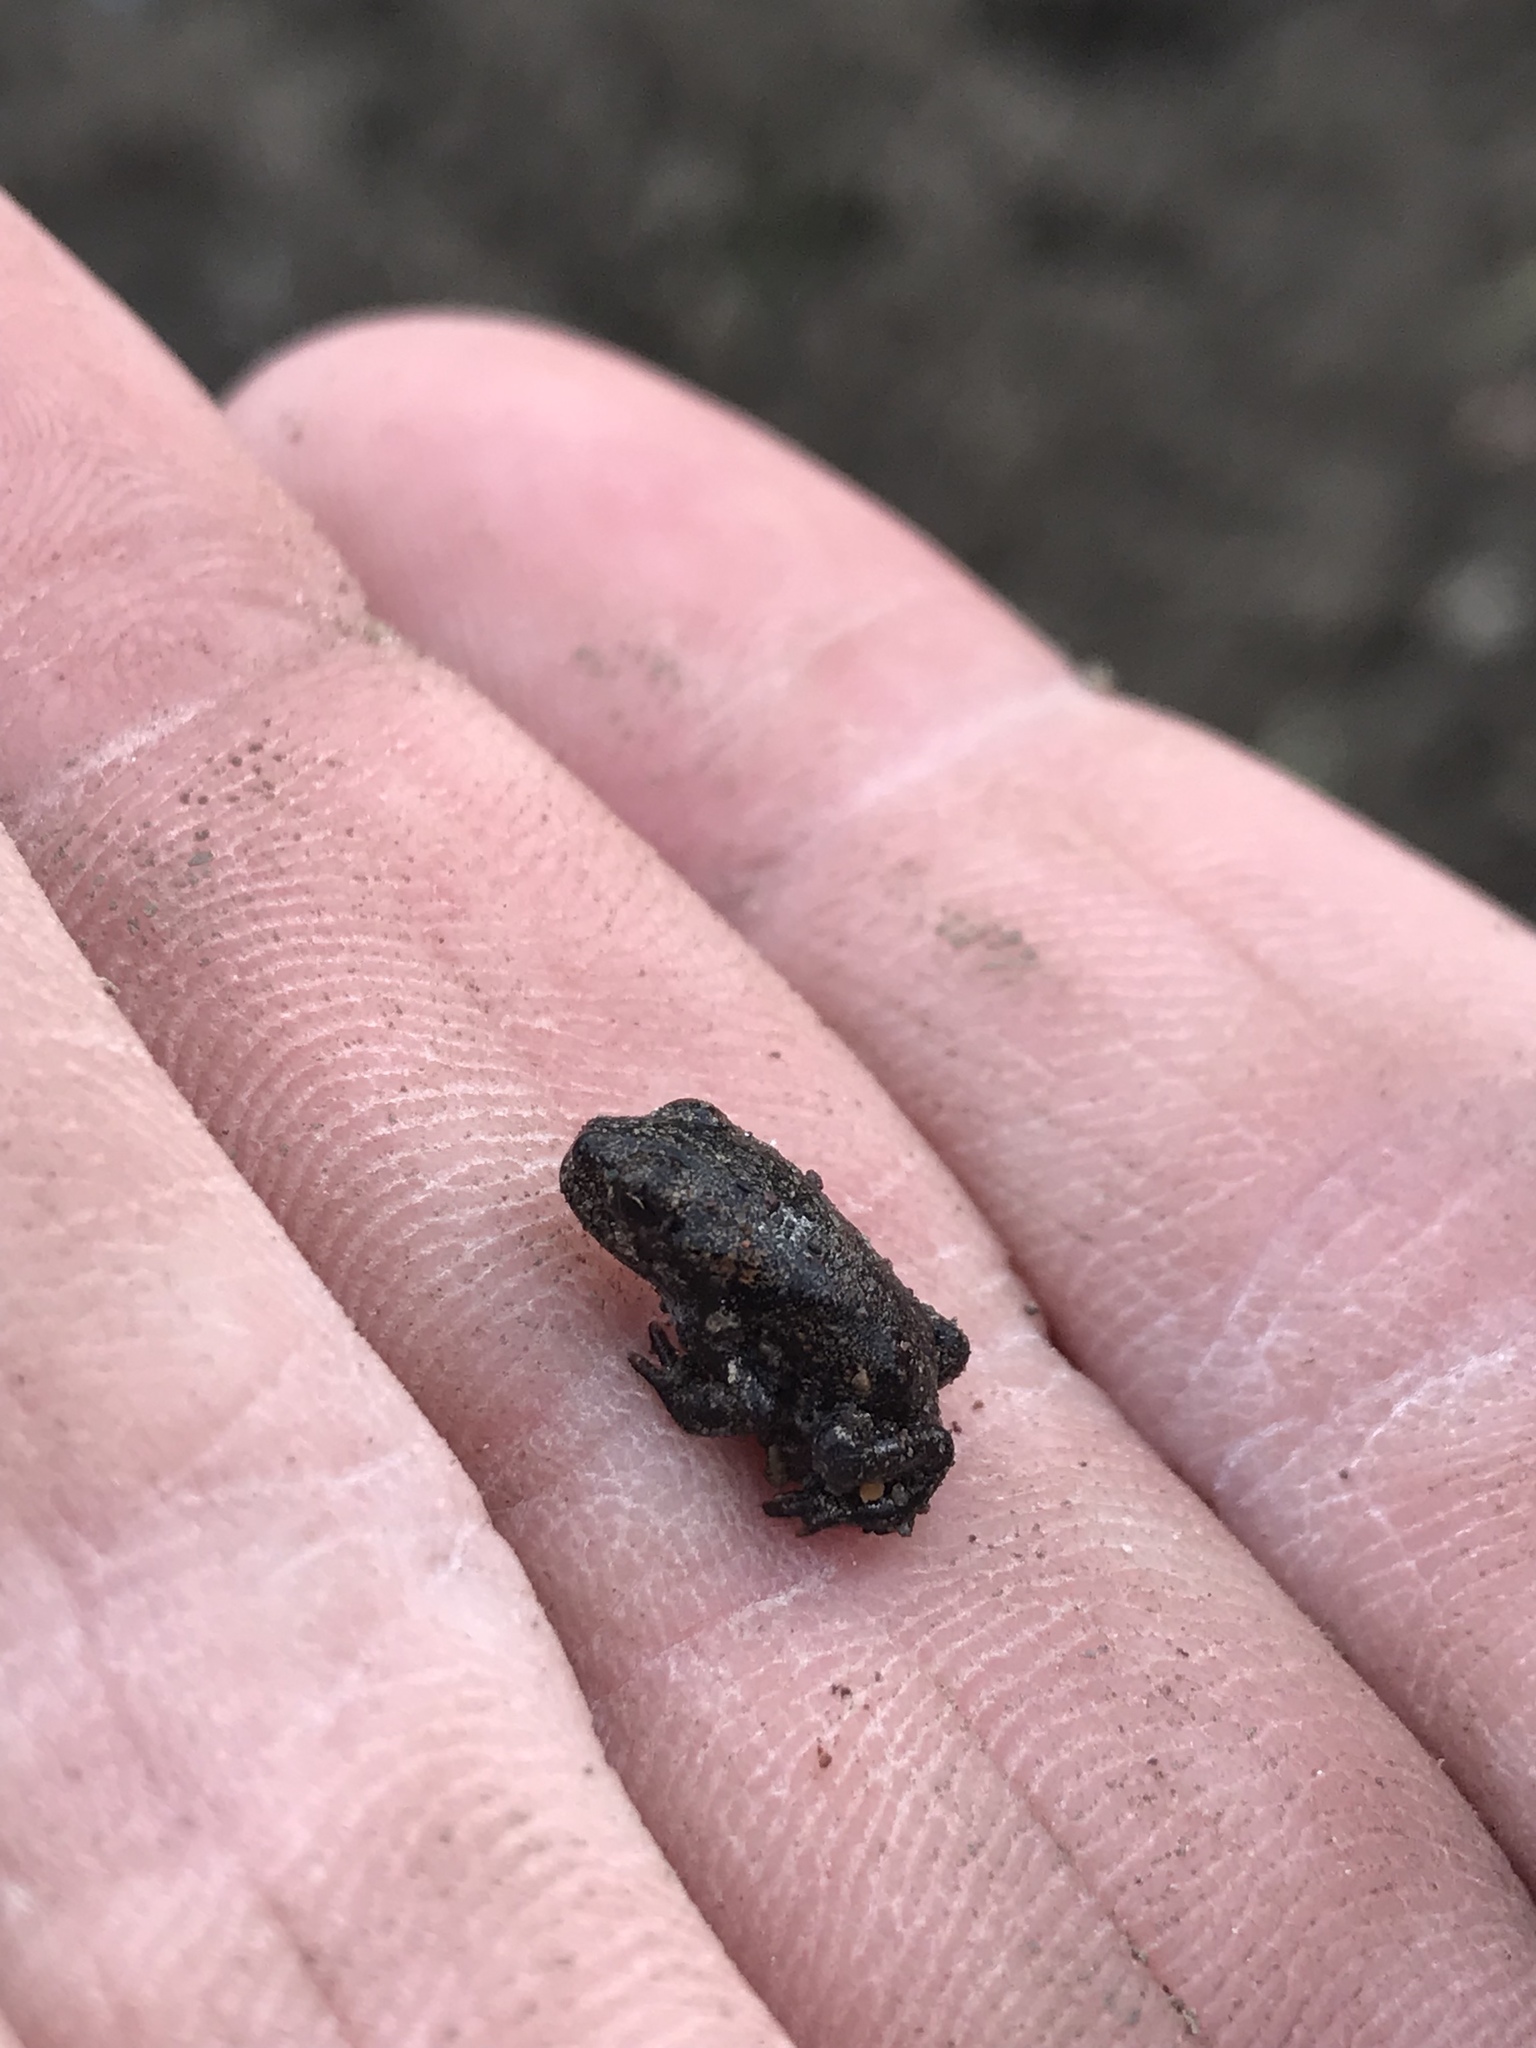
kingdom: Animalia
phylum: Chordata
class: Amphibia
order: Anura
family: Bufonidae
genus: Anaxyrus
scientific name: Anaxyrus boreas
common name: Western toad
